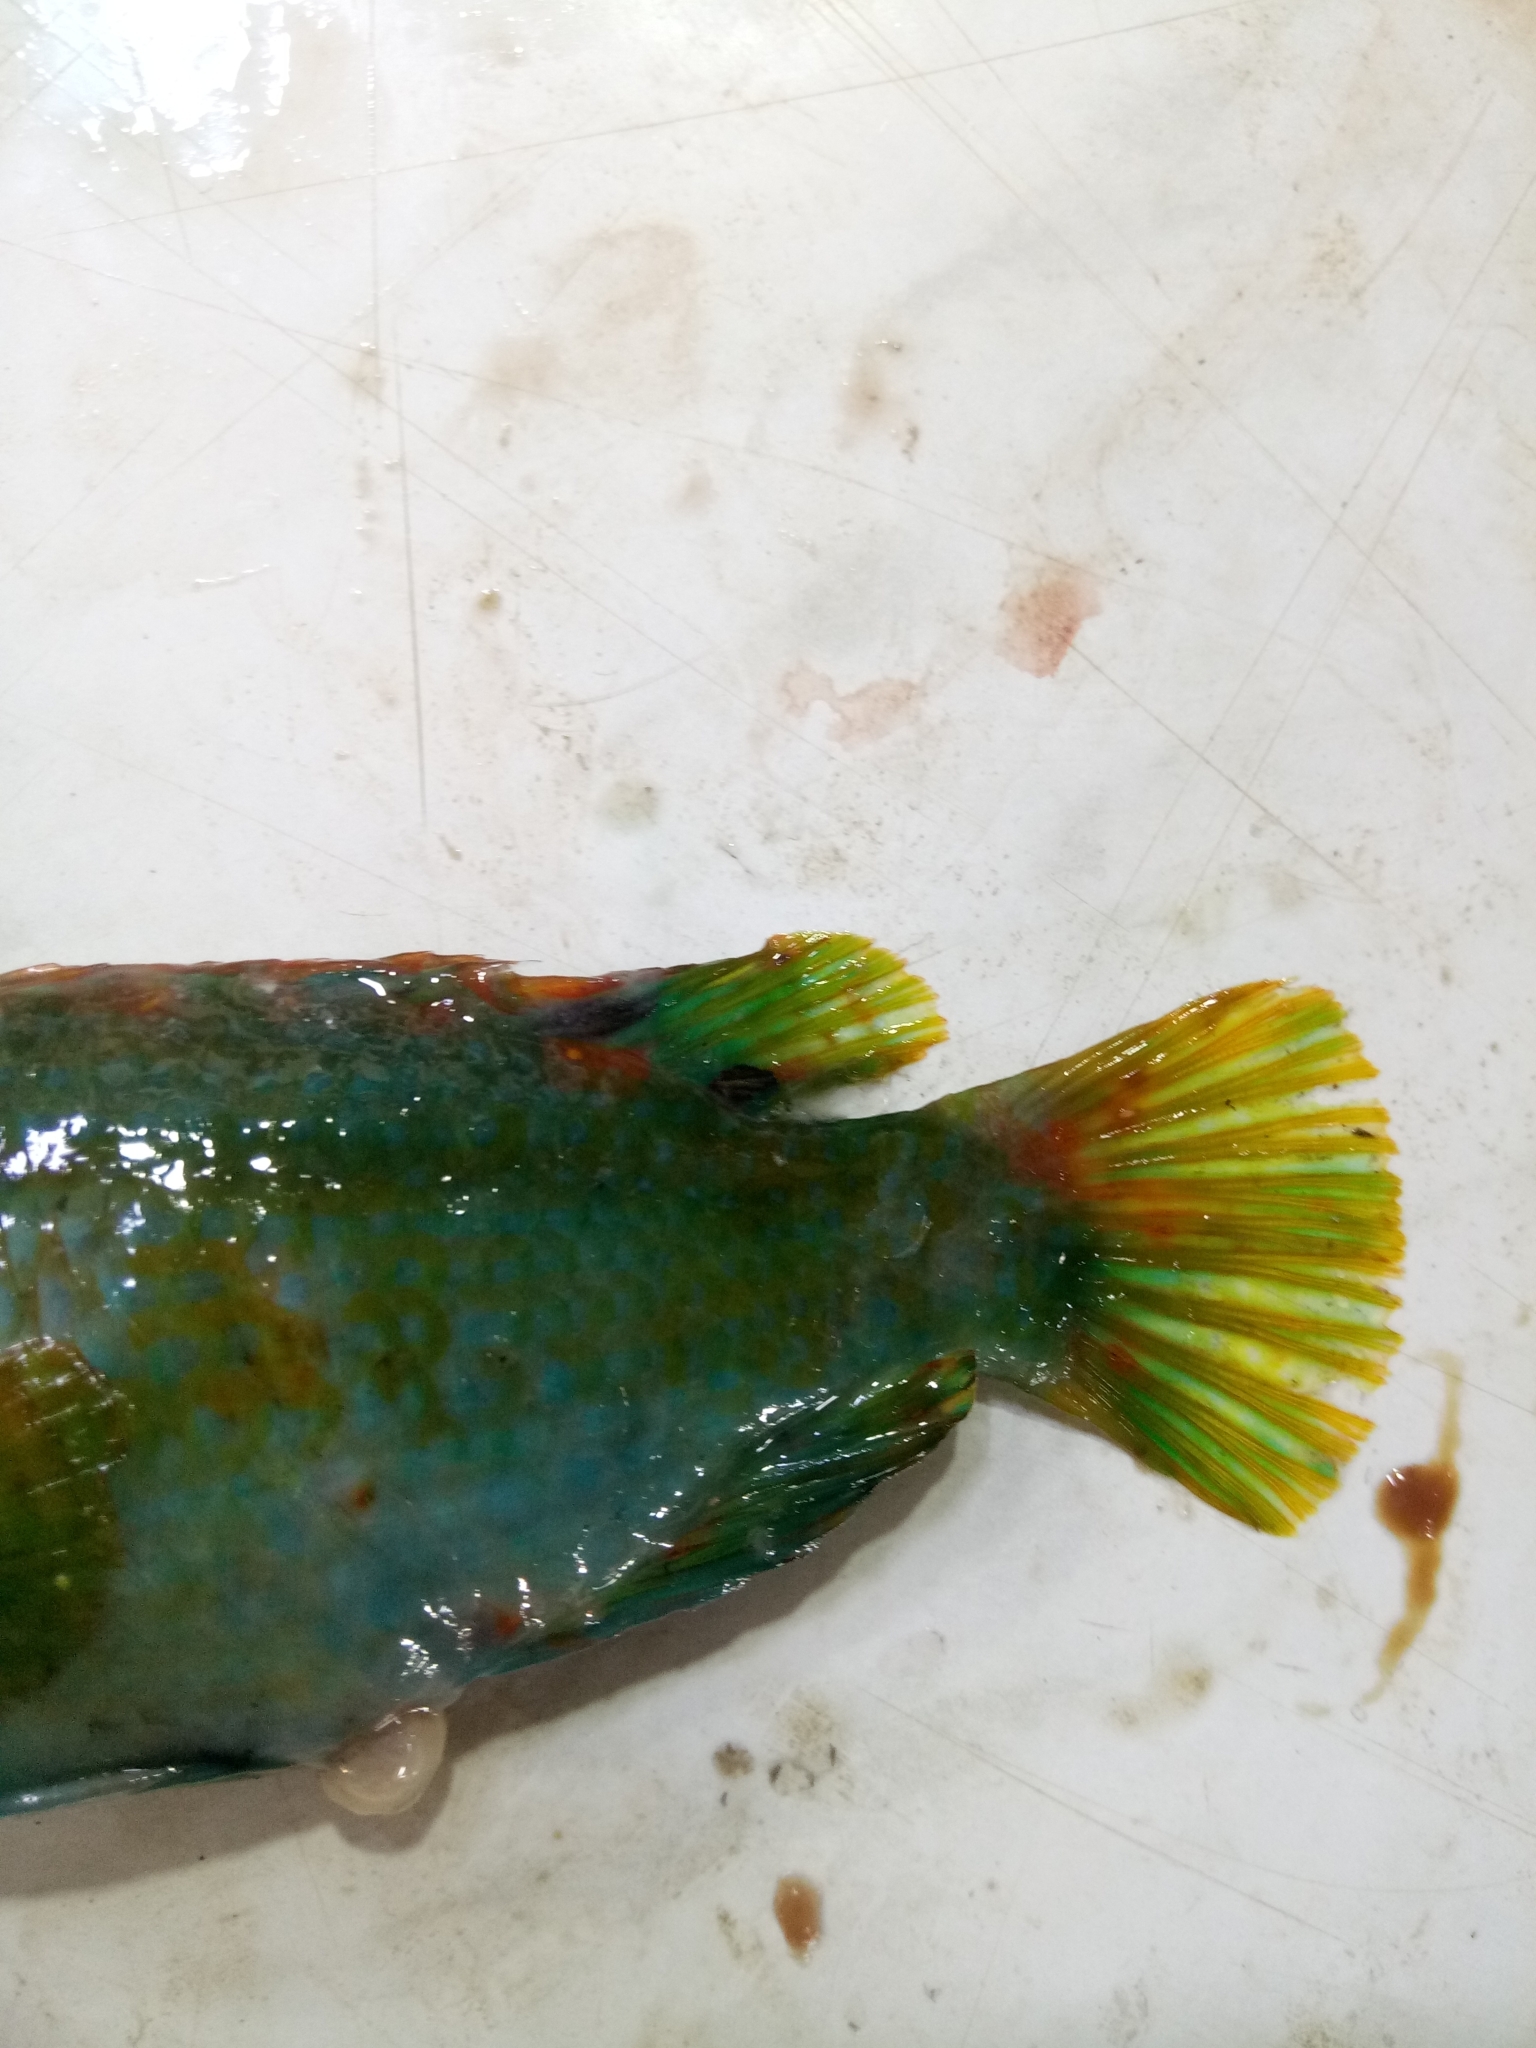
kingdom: Animalia
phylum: Chordata
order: Perciformes
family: Labridae
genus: Symphodus
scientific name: Symphodus roissali
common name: Five-spotted wrasse
